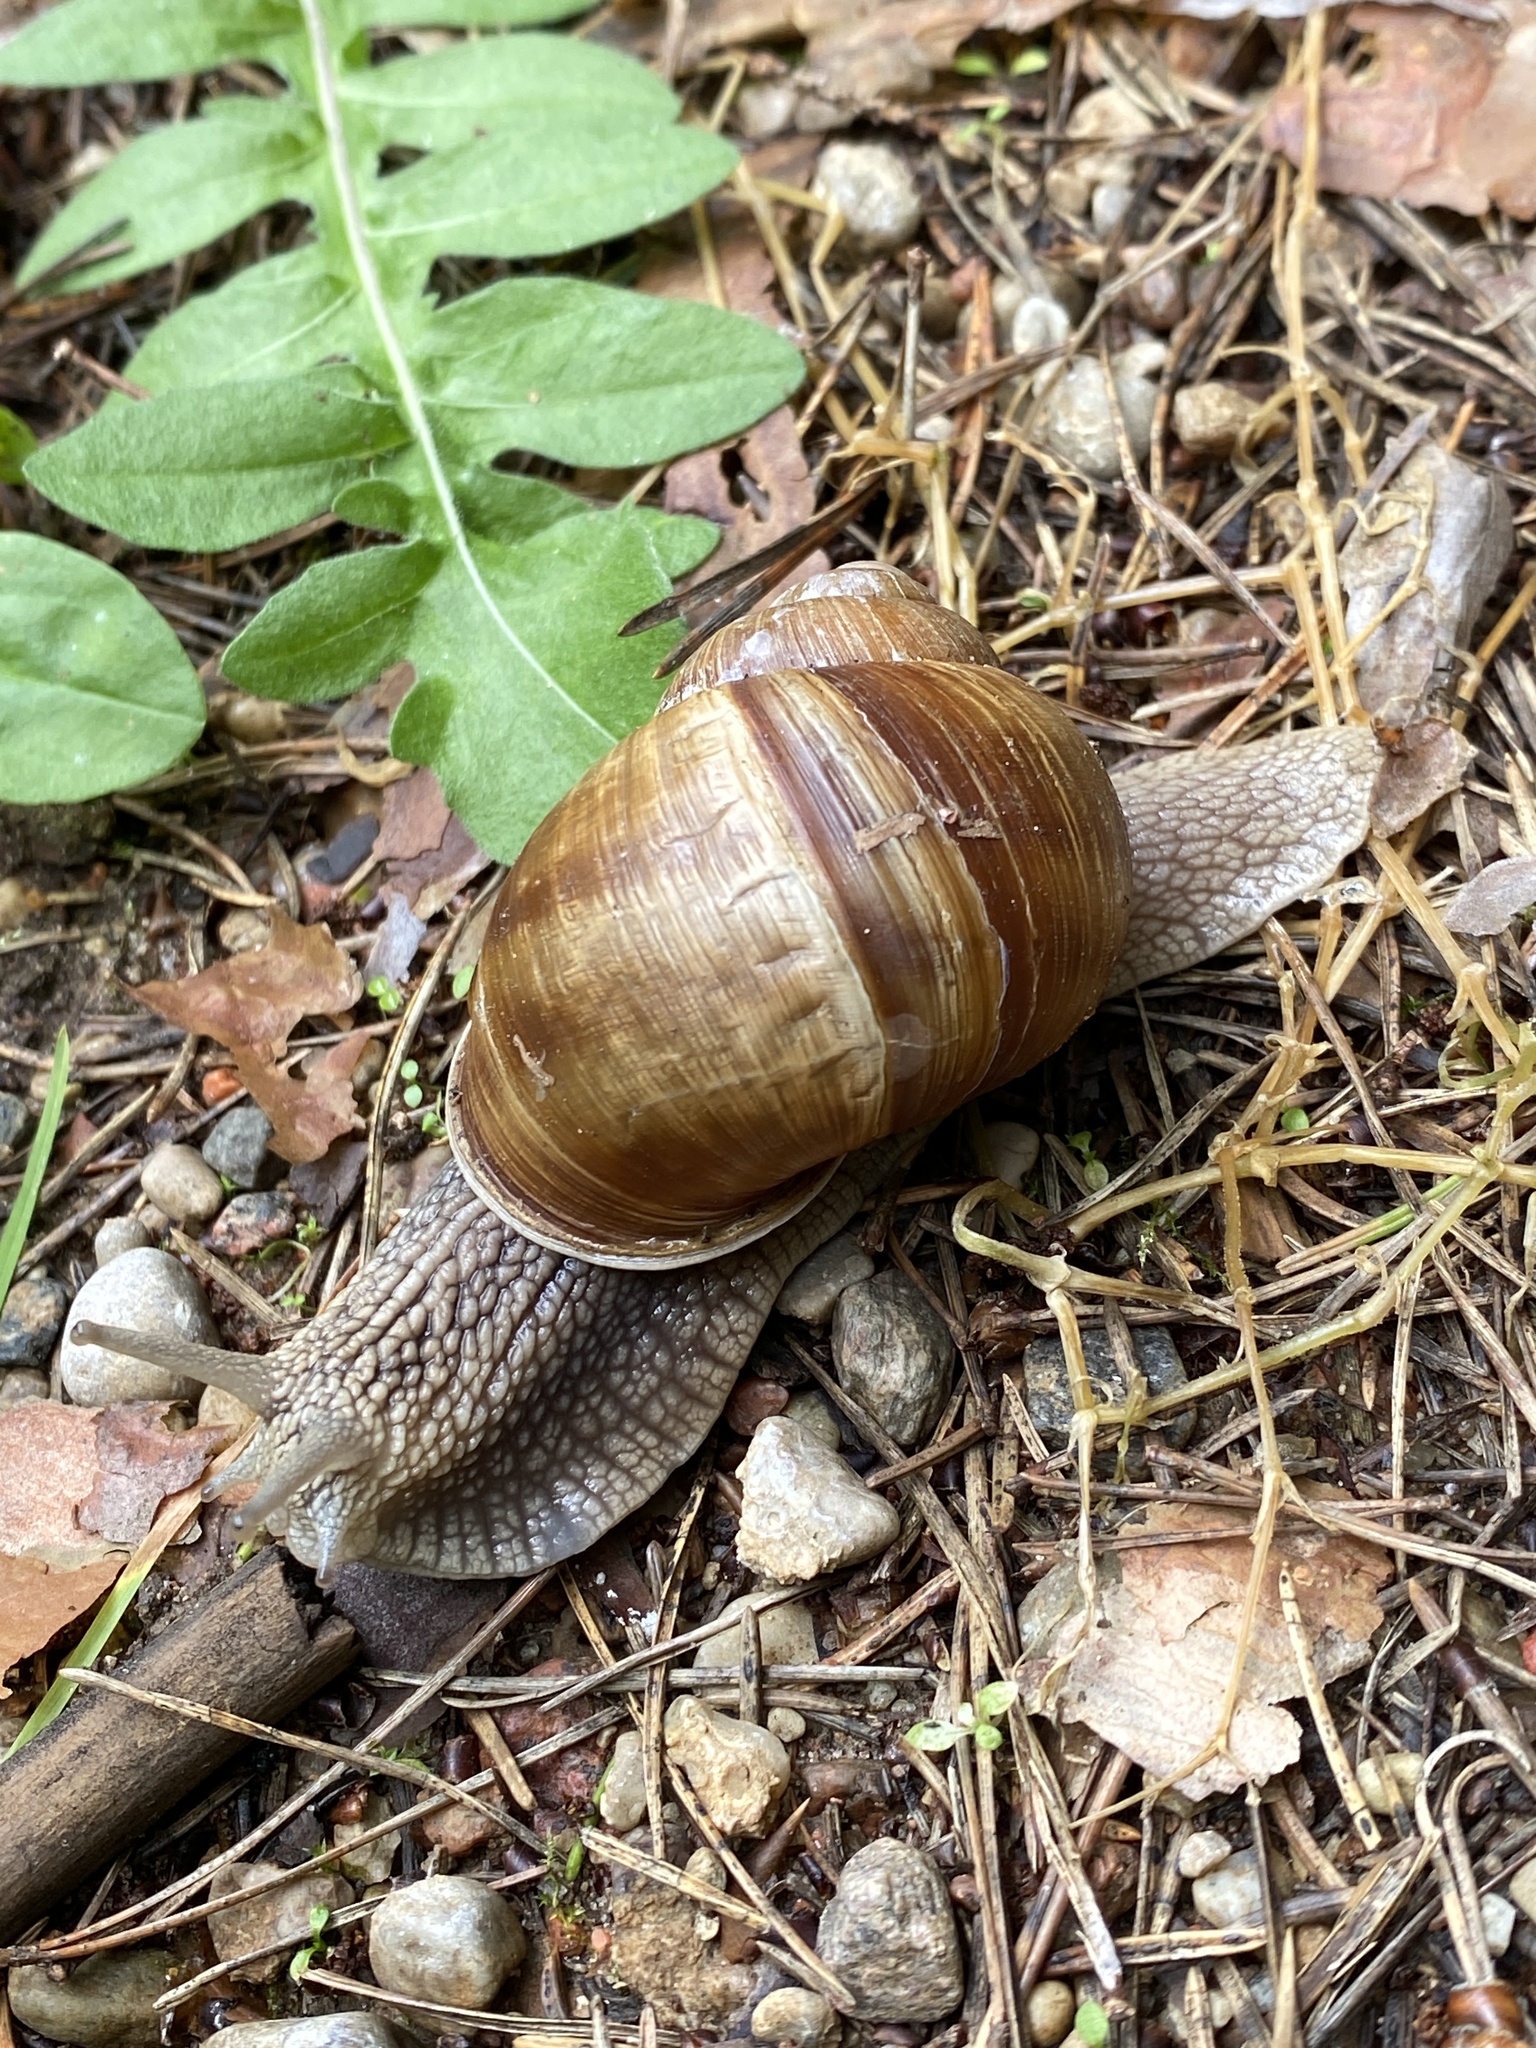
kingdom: Animalia
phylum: Mollusca
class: Gastropoda
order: Stylommatophora
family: Helicidae
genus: Helix
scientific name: Helix pomatia
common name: Roman snail
